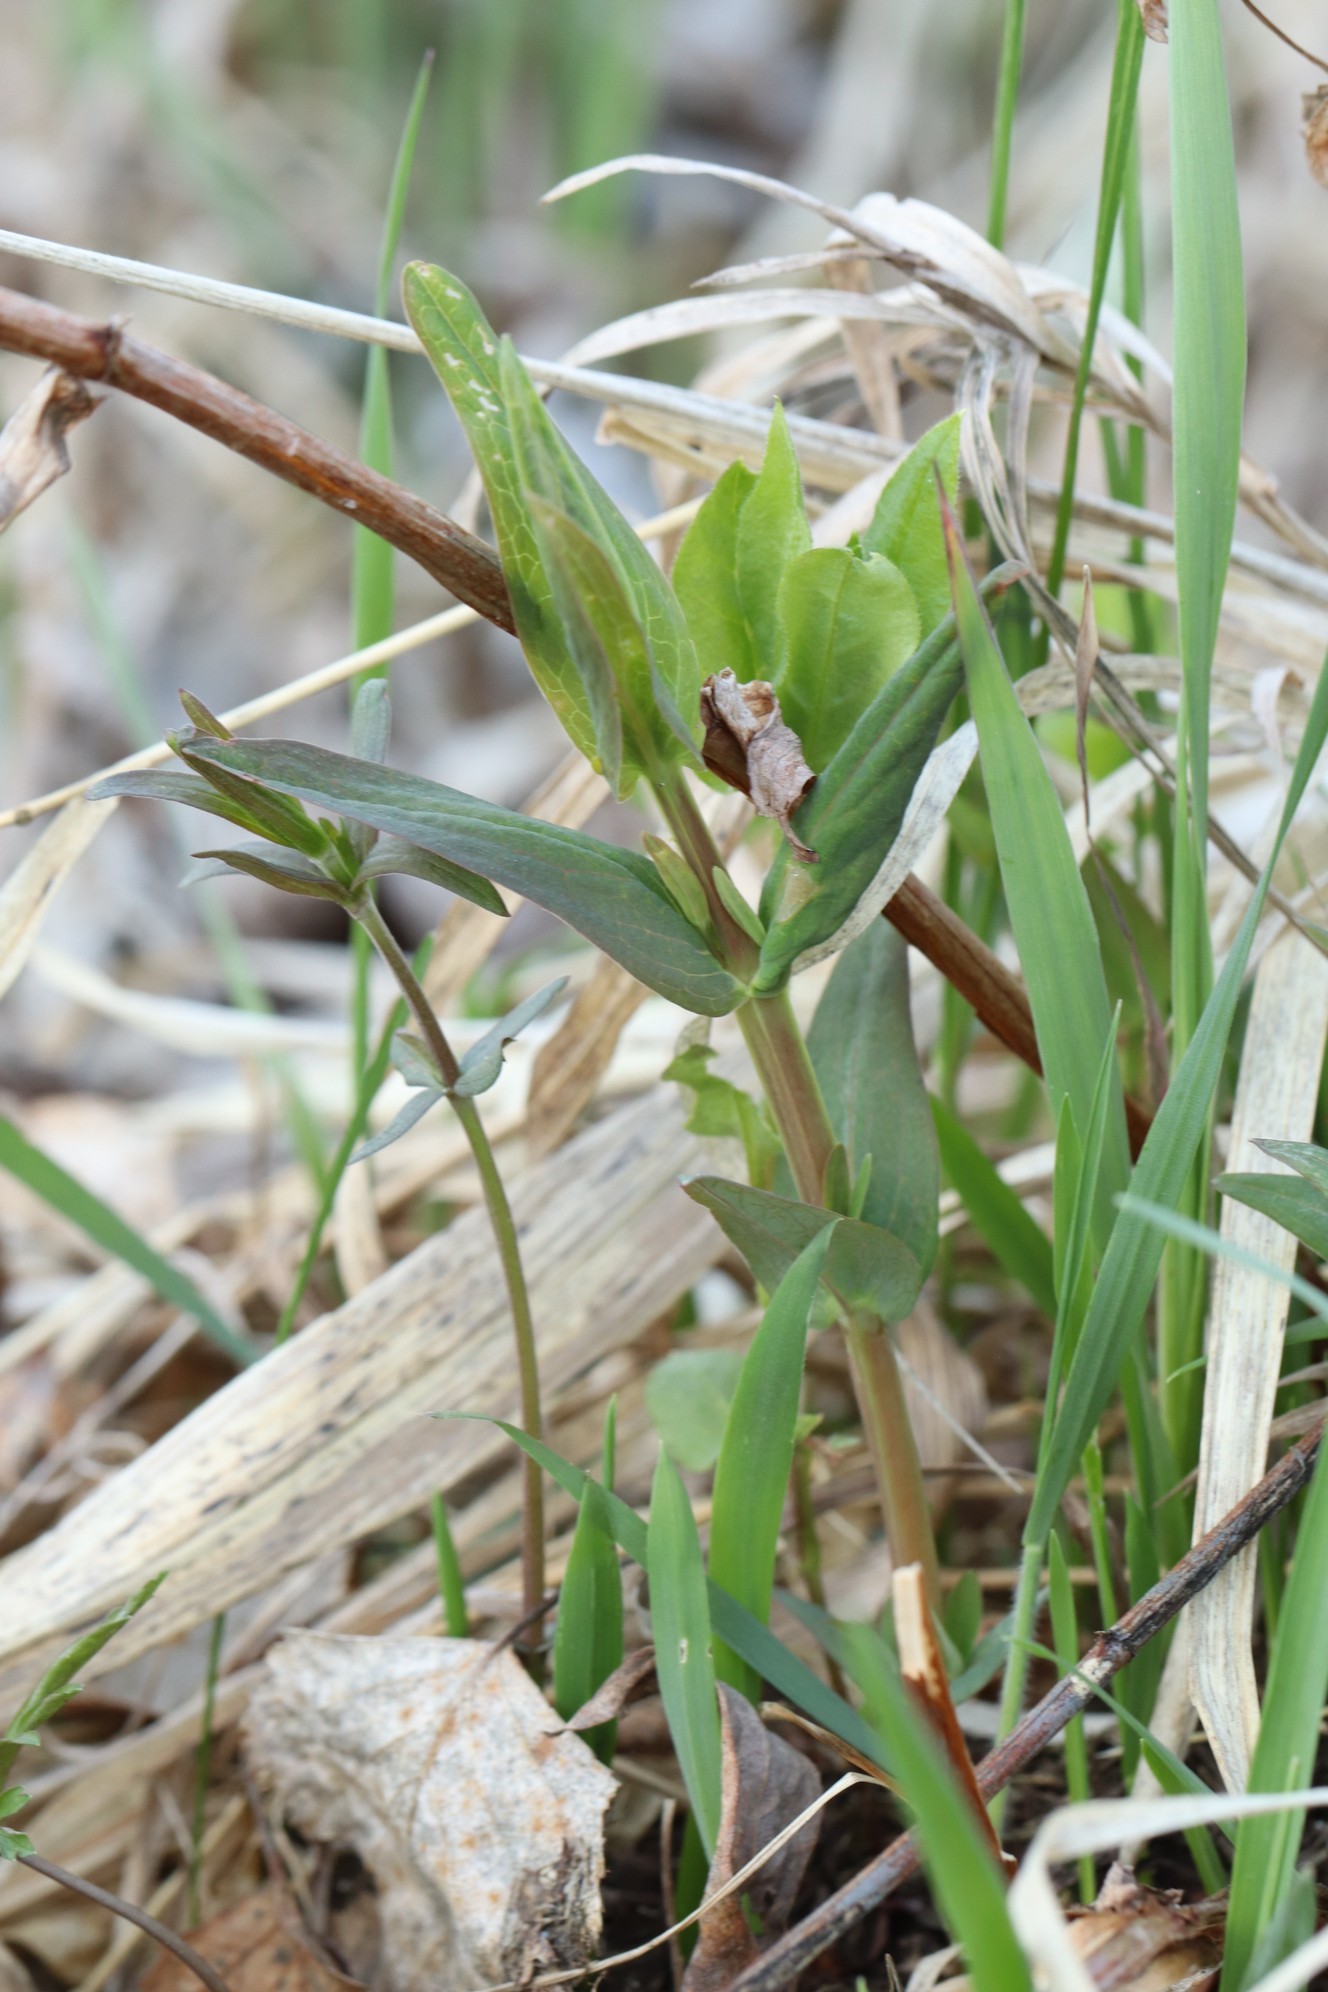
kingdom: Plantae
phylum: Tracheophyta
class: Magnoliopsida
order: Malpighiales
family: Hypericaceae
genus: Hypericum
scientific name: Hypericum ascyron
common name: Giant st. john's-wort
